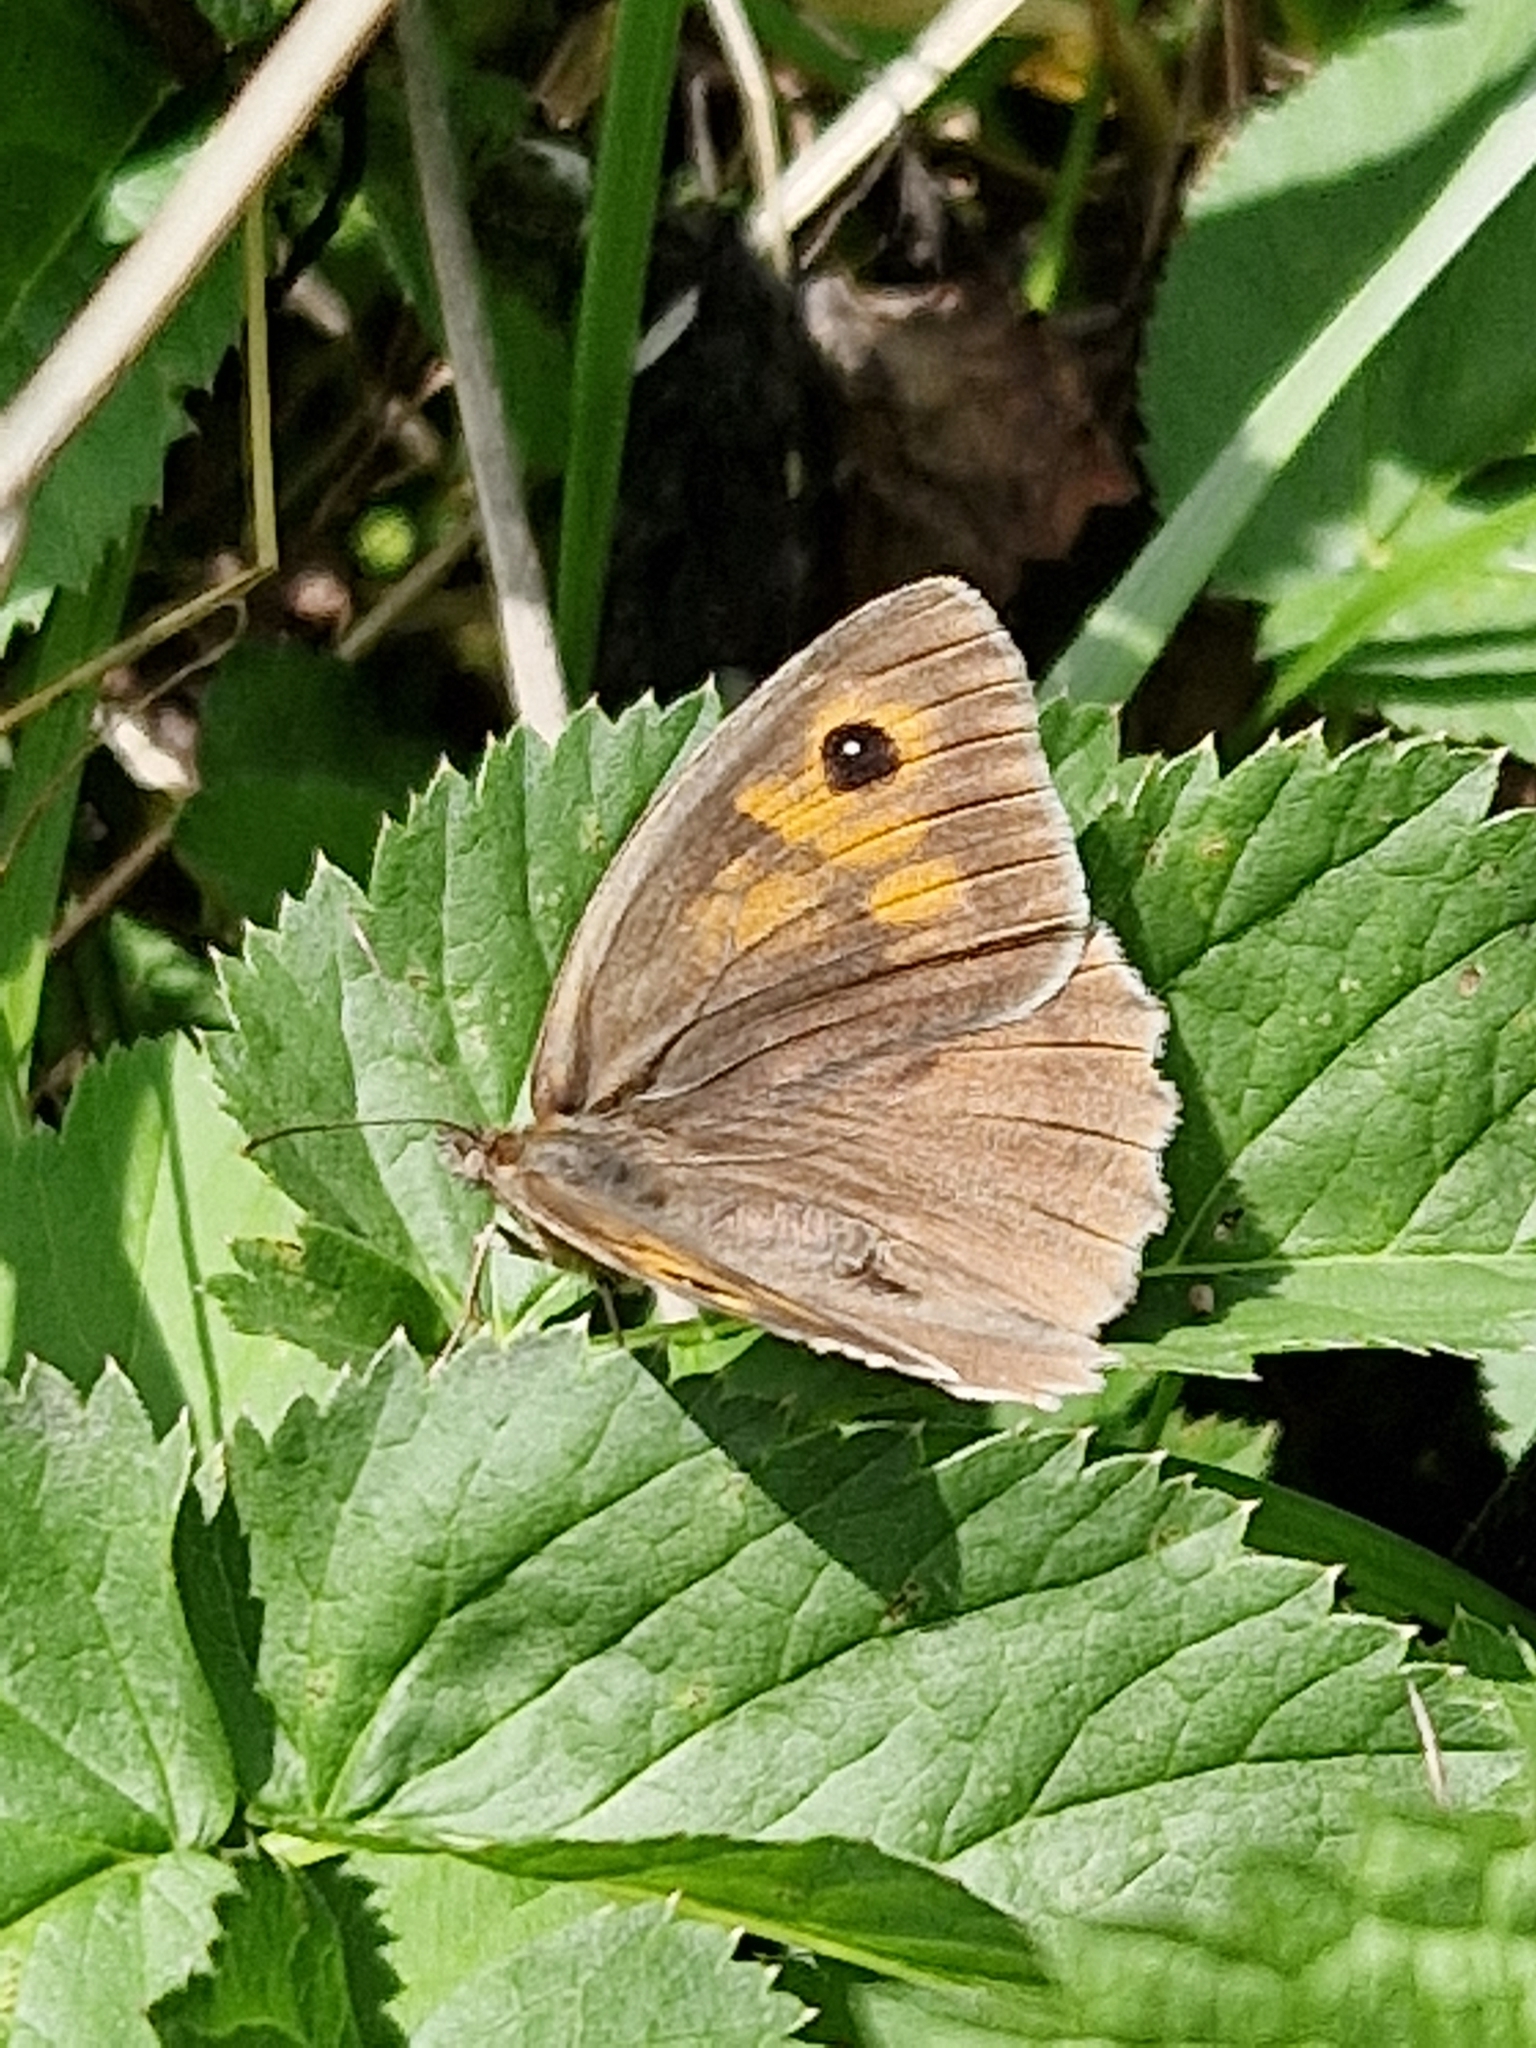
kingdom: Animalia
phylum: Arthropoda
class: Insecta
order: Lepidoptera
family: Nymphalidae
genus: Maniola
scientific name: Maniola jurtina
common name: Meadow brown
